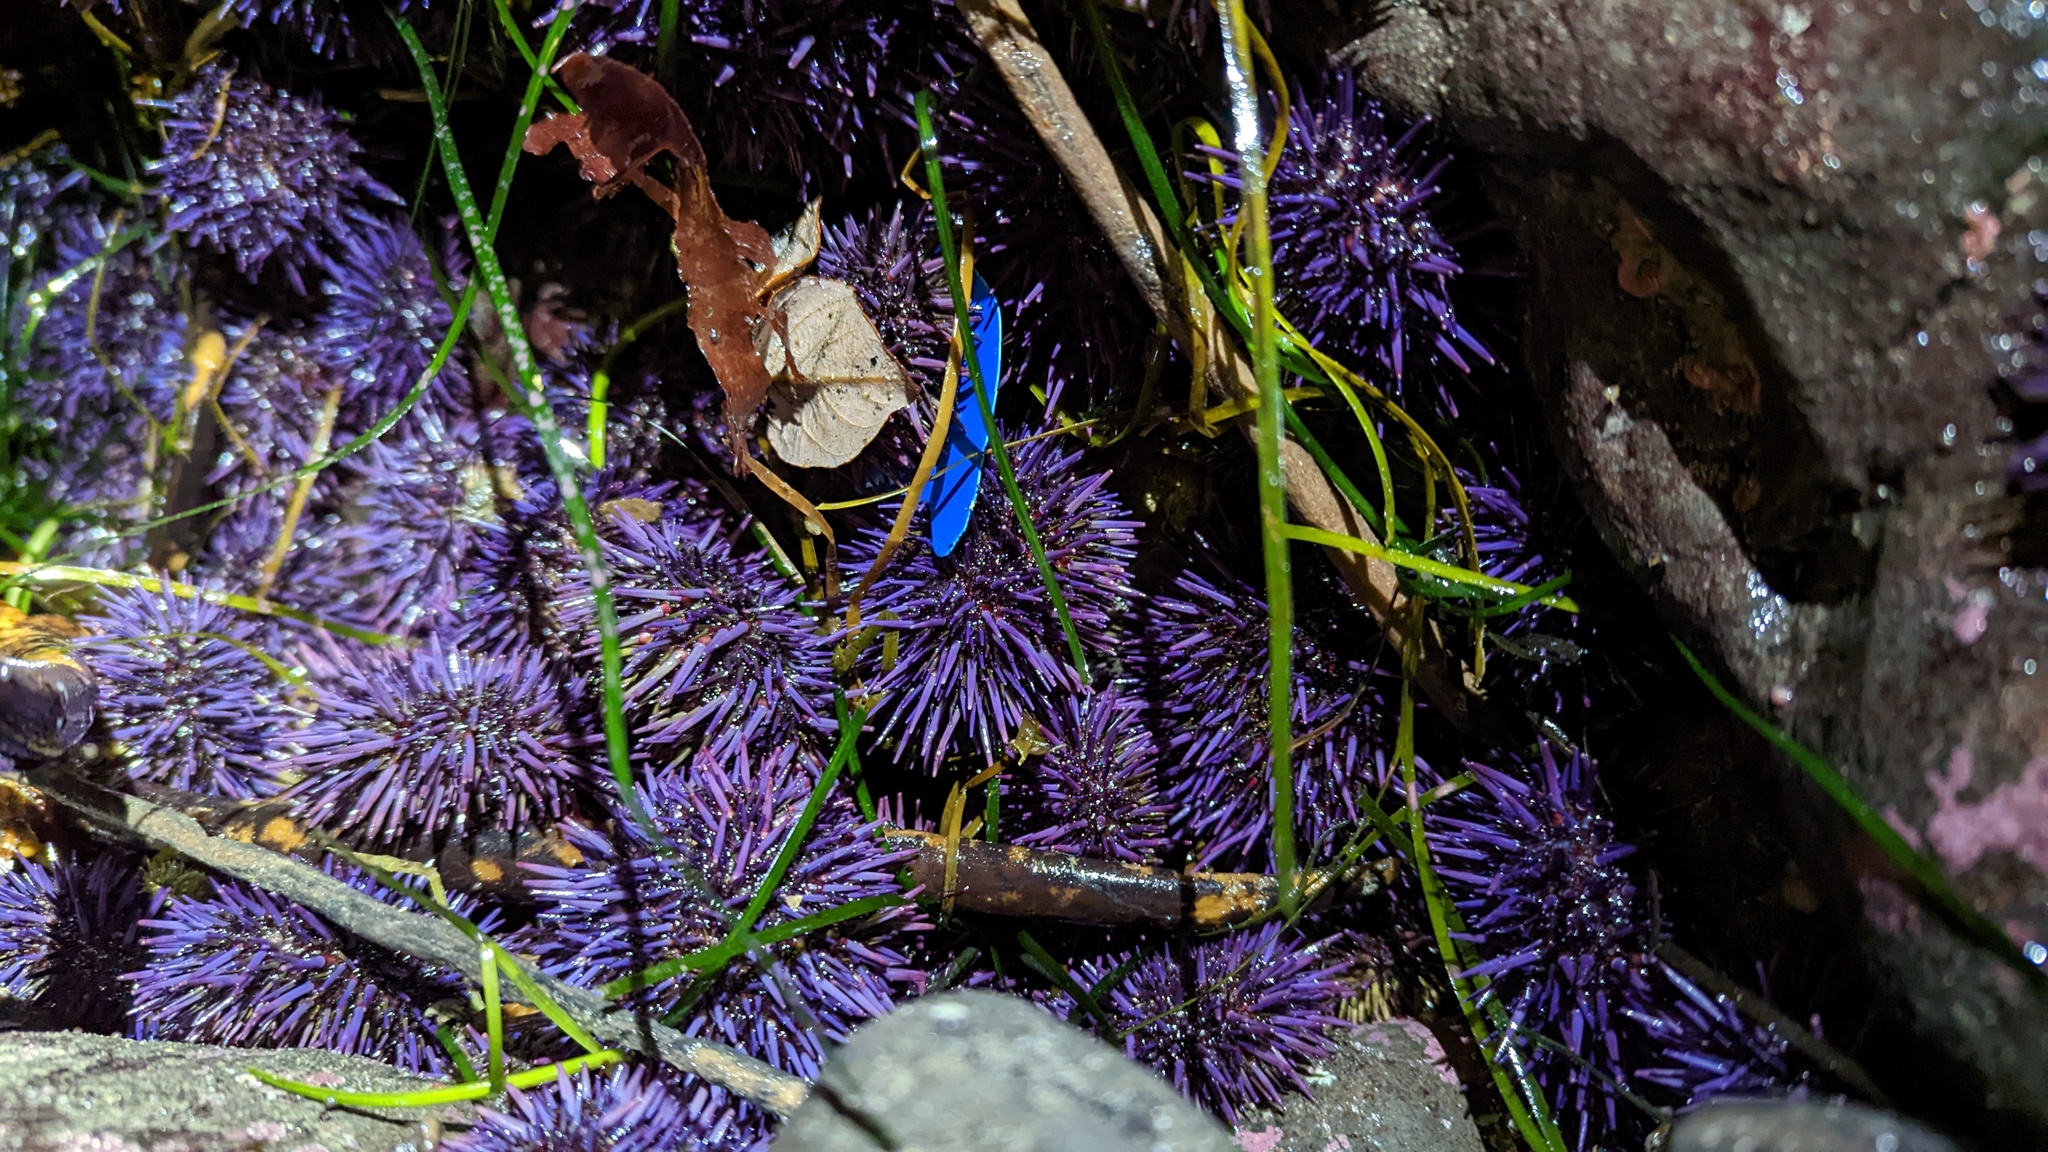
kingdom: Animalia
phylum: Echinodermata
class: Echinoidea
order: Camarodonta
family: Strongylocentrotidae
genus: Strongylocentrotus
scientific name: Strongylocentrotus purpuratus
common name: Purple sea urchin
